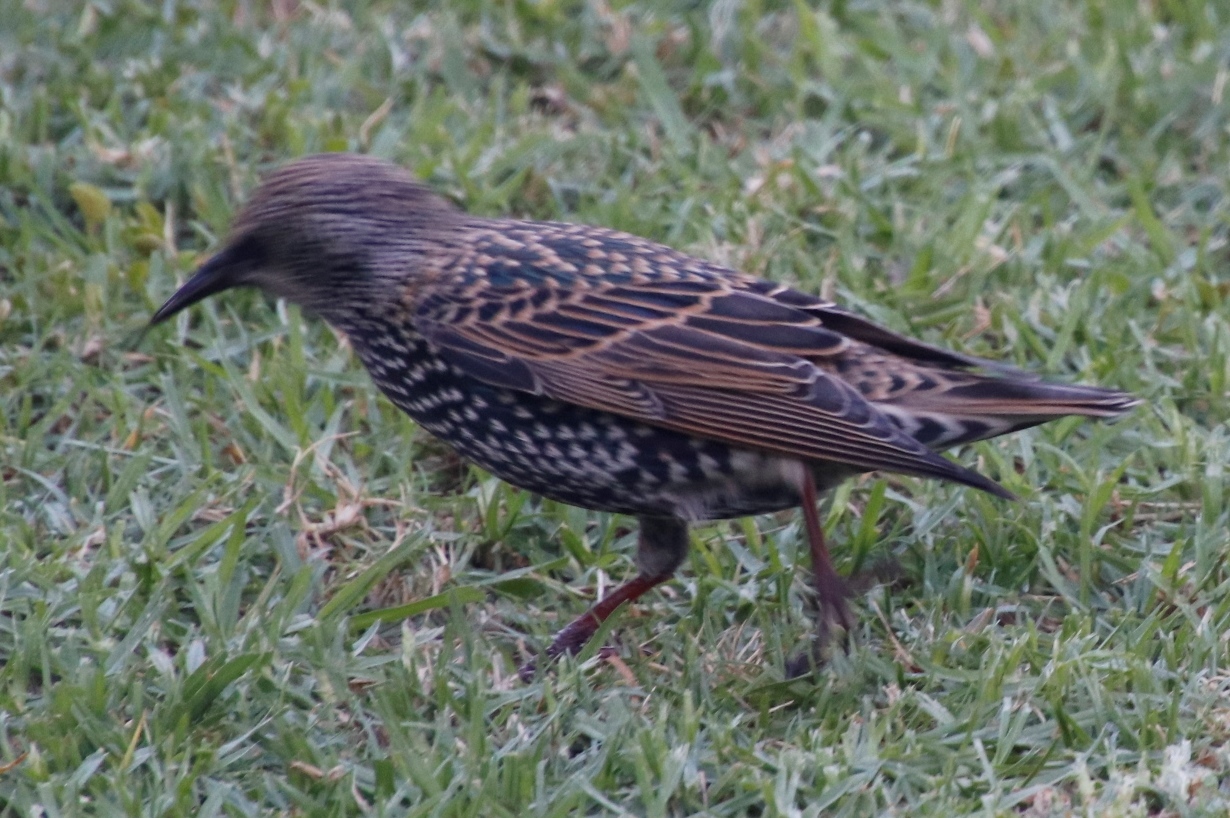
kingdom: Animalia
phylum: Chordata
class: Aves
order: Passeriformes
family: Sturnidae
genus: Sturnus
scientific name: Sturnus vulgaris
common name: Common starling
